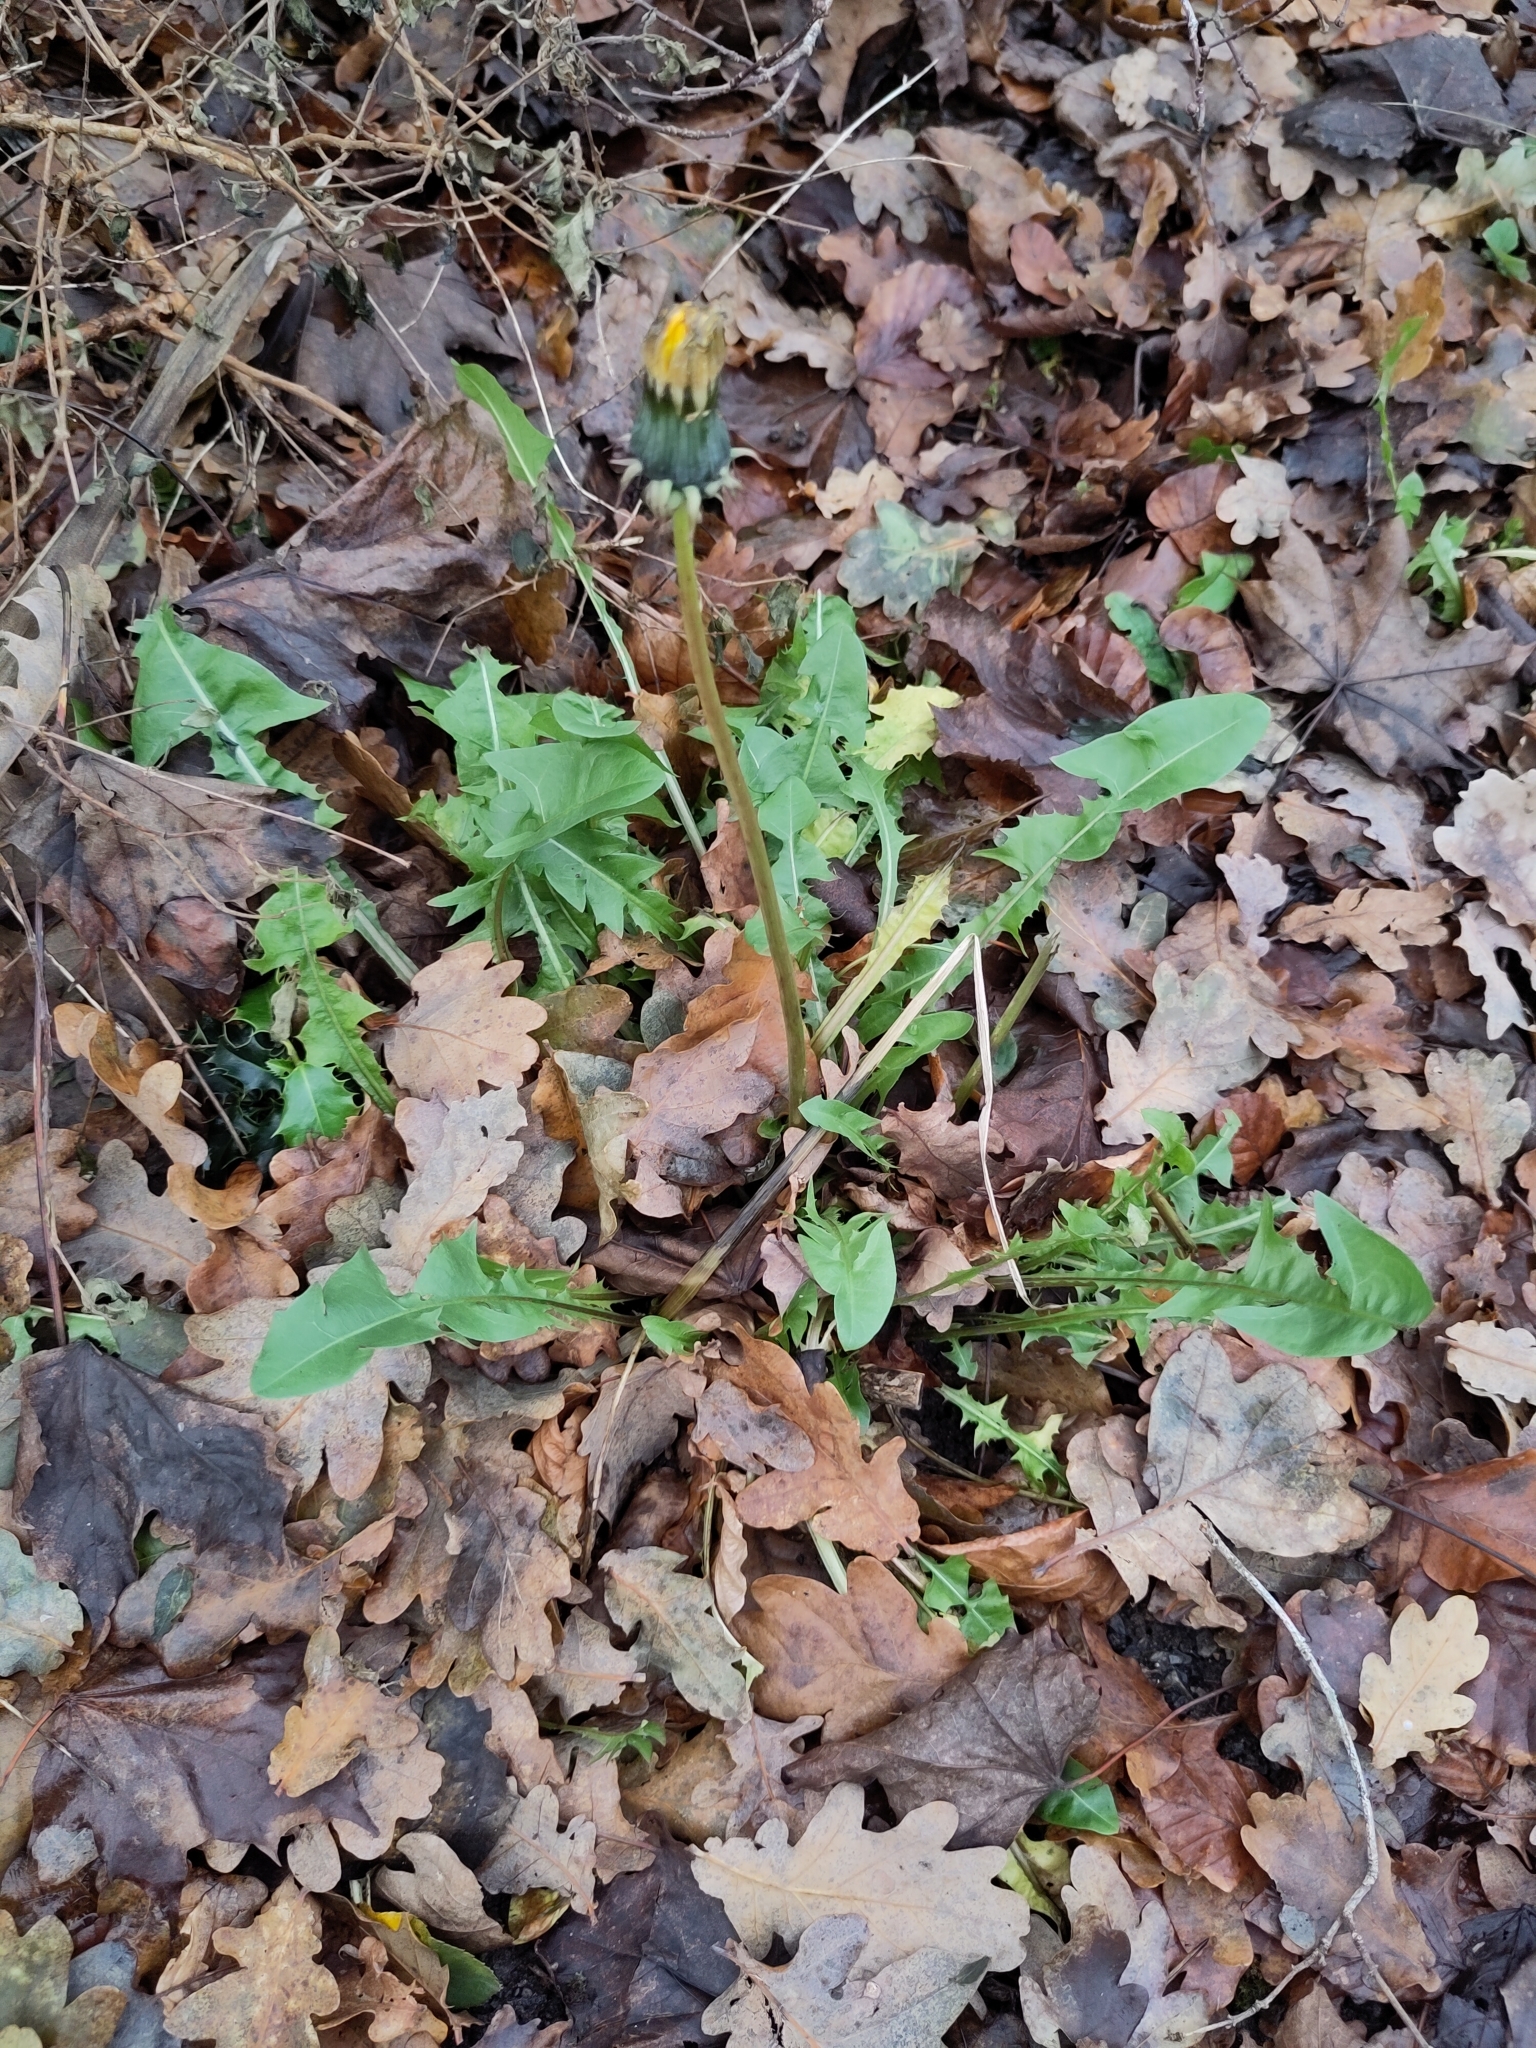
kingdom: Plantae
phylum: Tracheophyta
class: Magnoliopsida
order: Asterales
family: Asteraceae
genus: Taraxacum
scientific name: Taraxacum officinale
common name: Common dandelion
